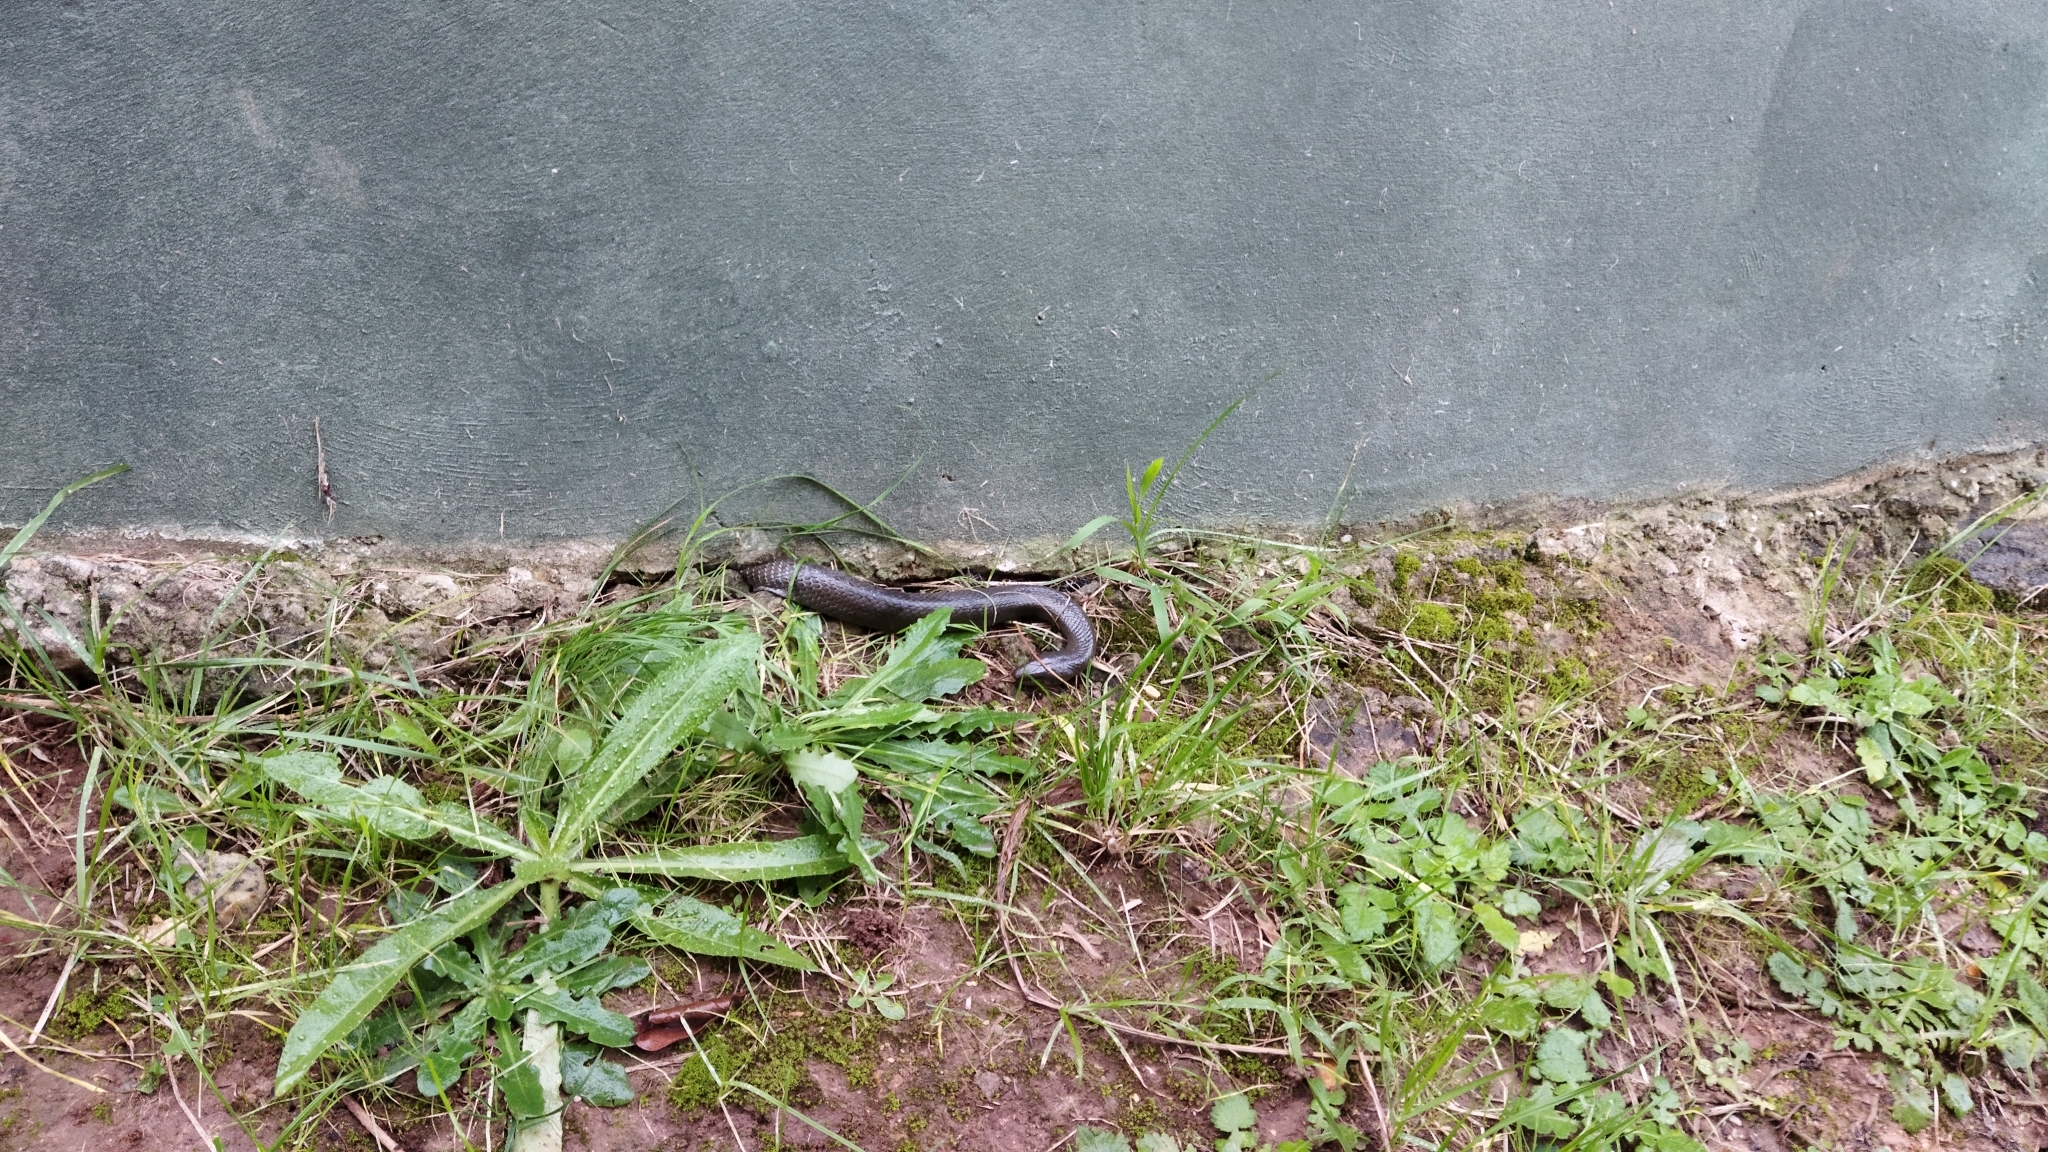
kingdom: Animalia
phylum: Chordata
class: Squamata
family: Lamprophiidae
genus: Lycodonomorphus
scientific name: Lycodonomorphus inornatus
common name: Black house snake
